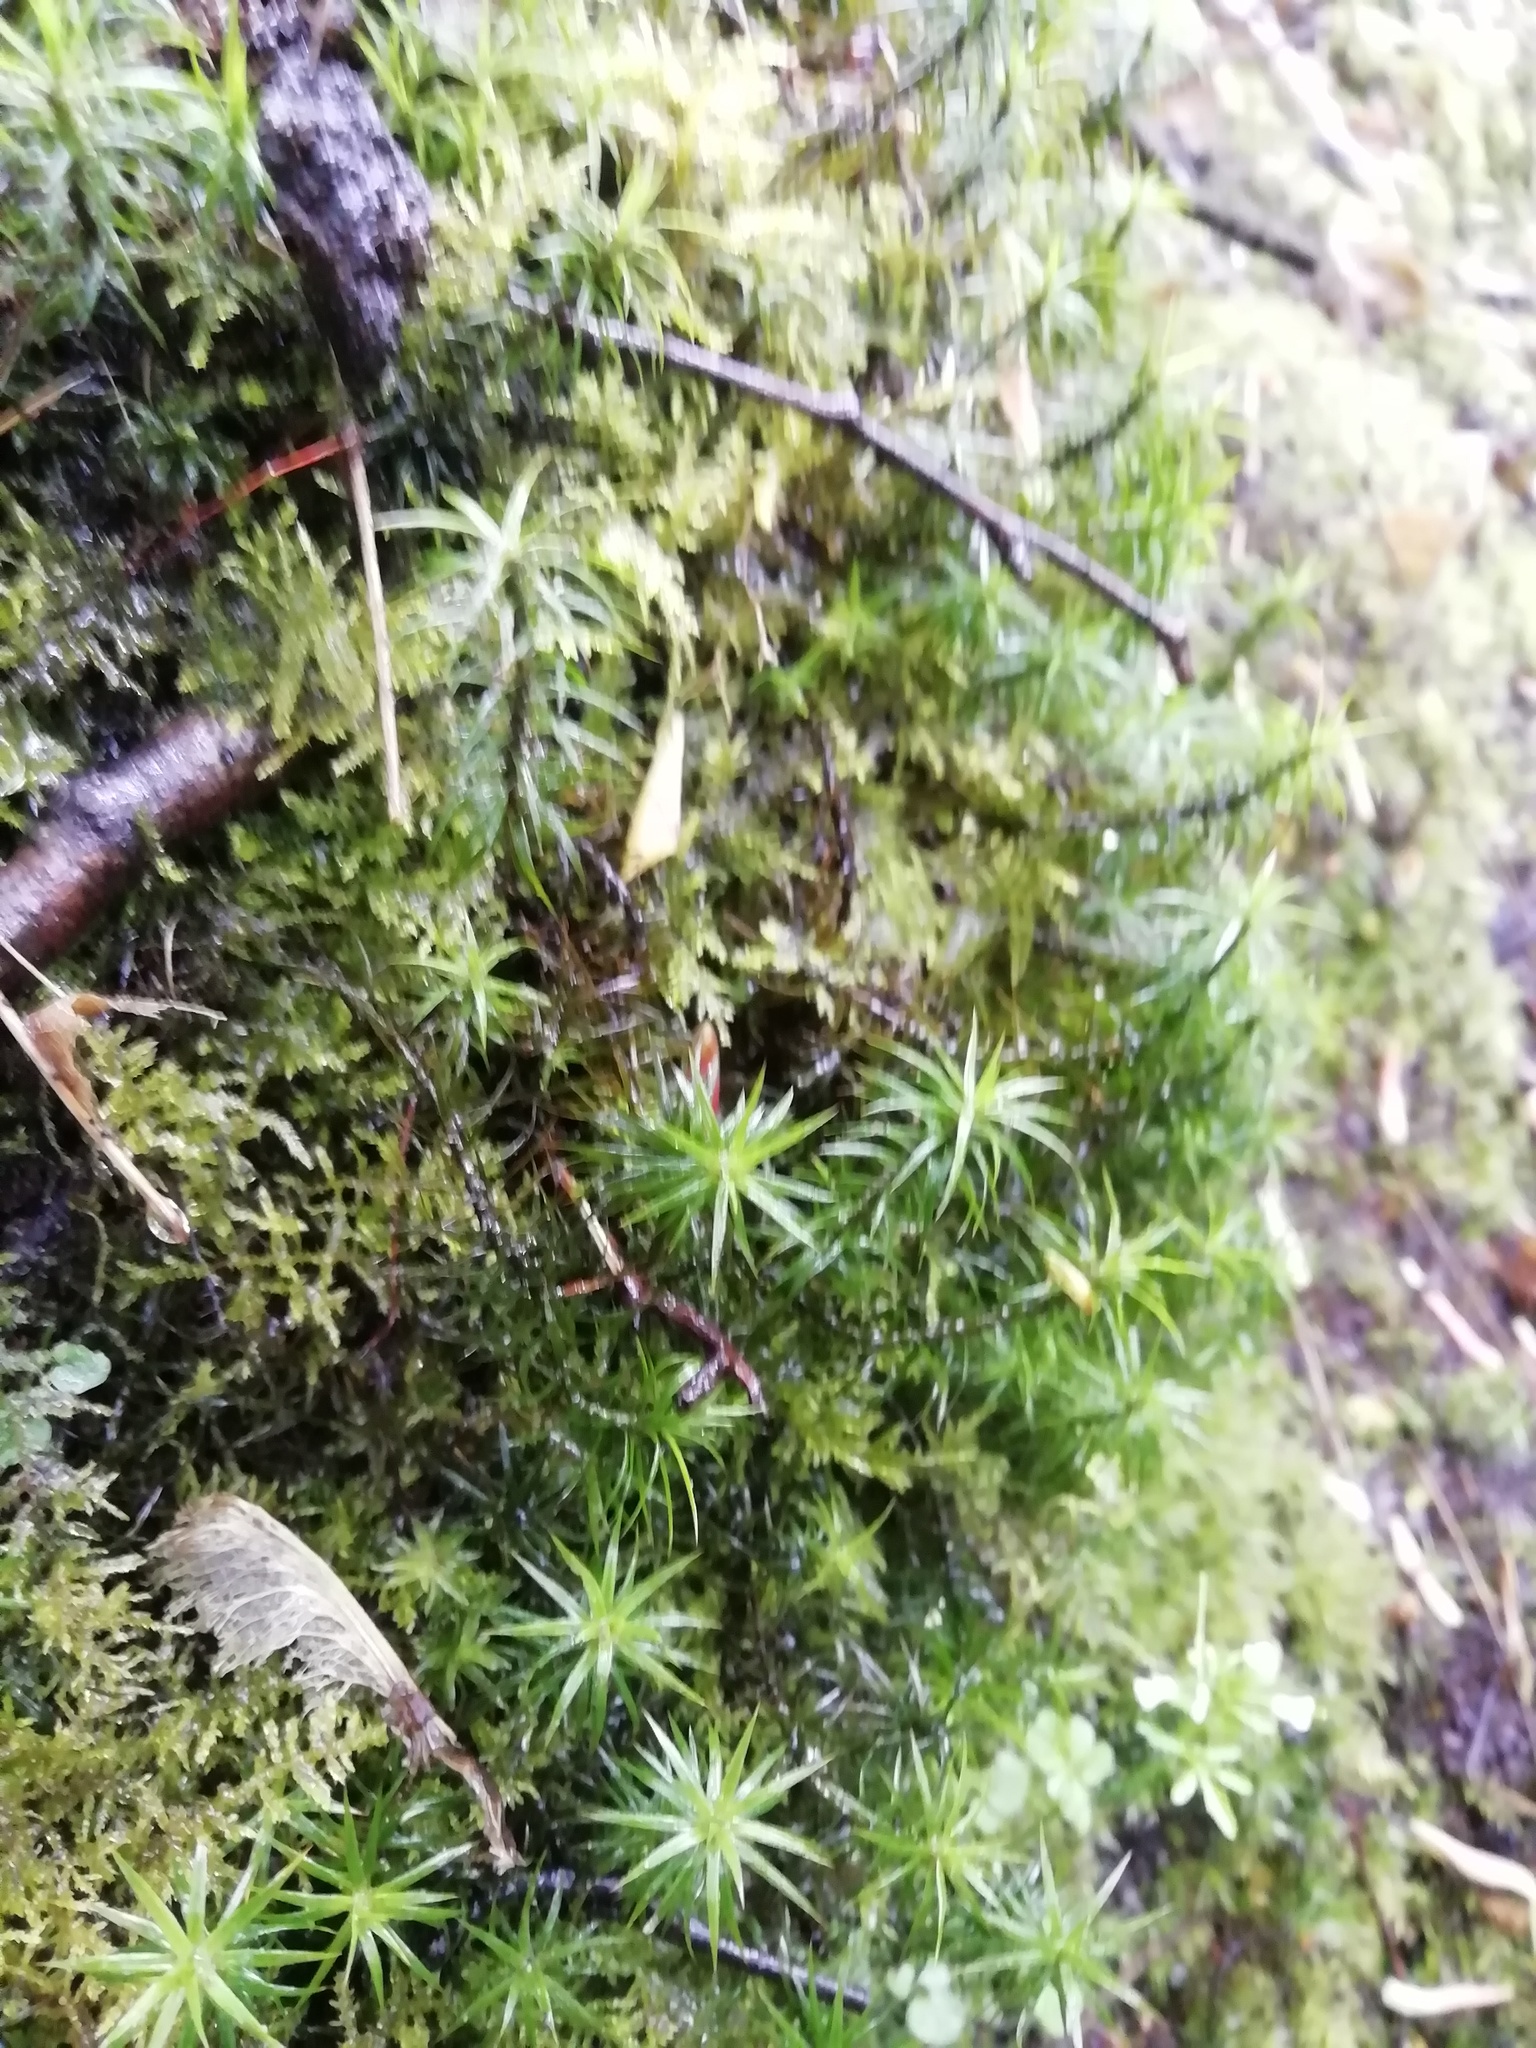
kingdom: Plantae
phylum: Bryophyta
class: Polytrichopsida
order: Polytrichales
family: Polytrichaceae
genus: Polytrichum
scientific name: Polytrichum formosum
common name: Bank haircap moss
